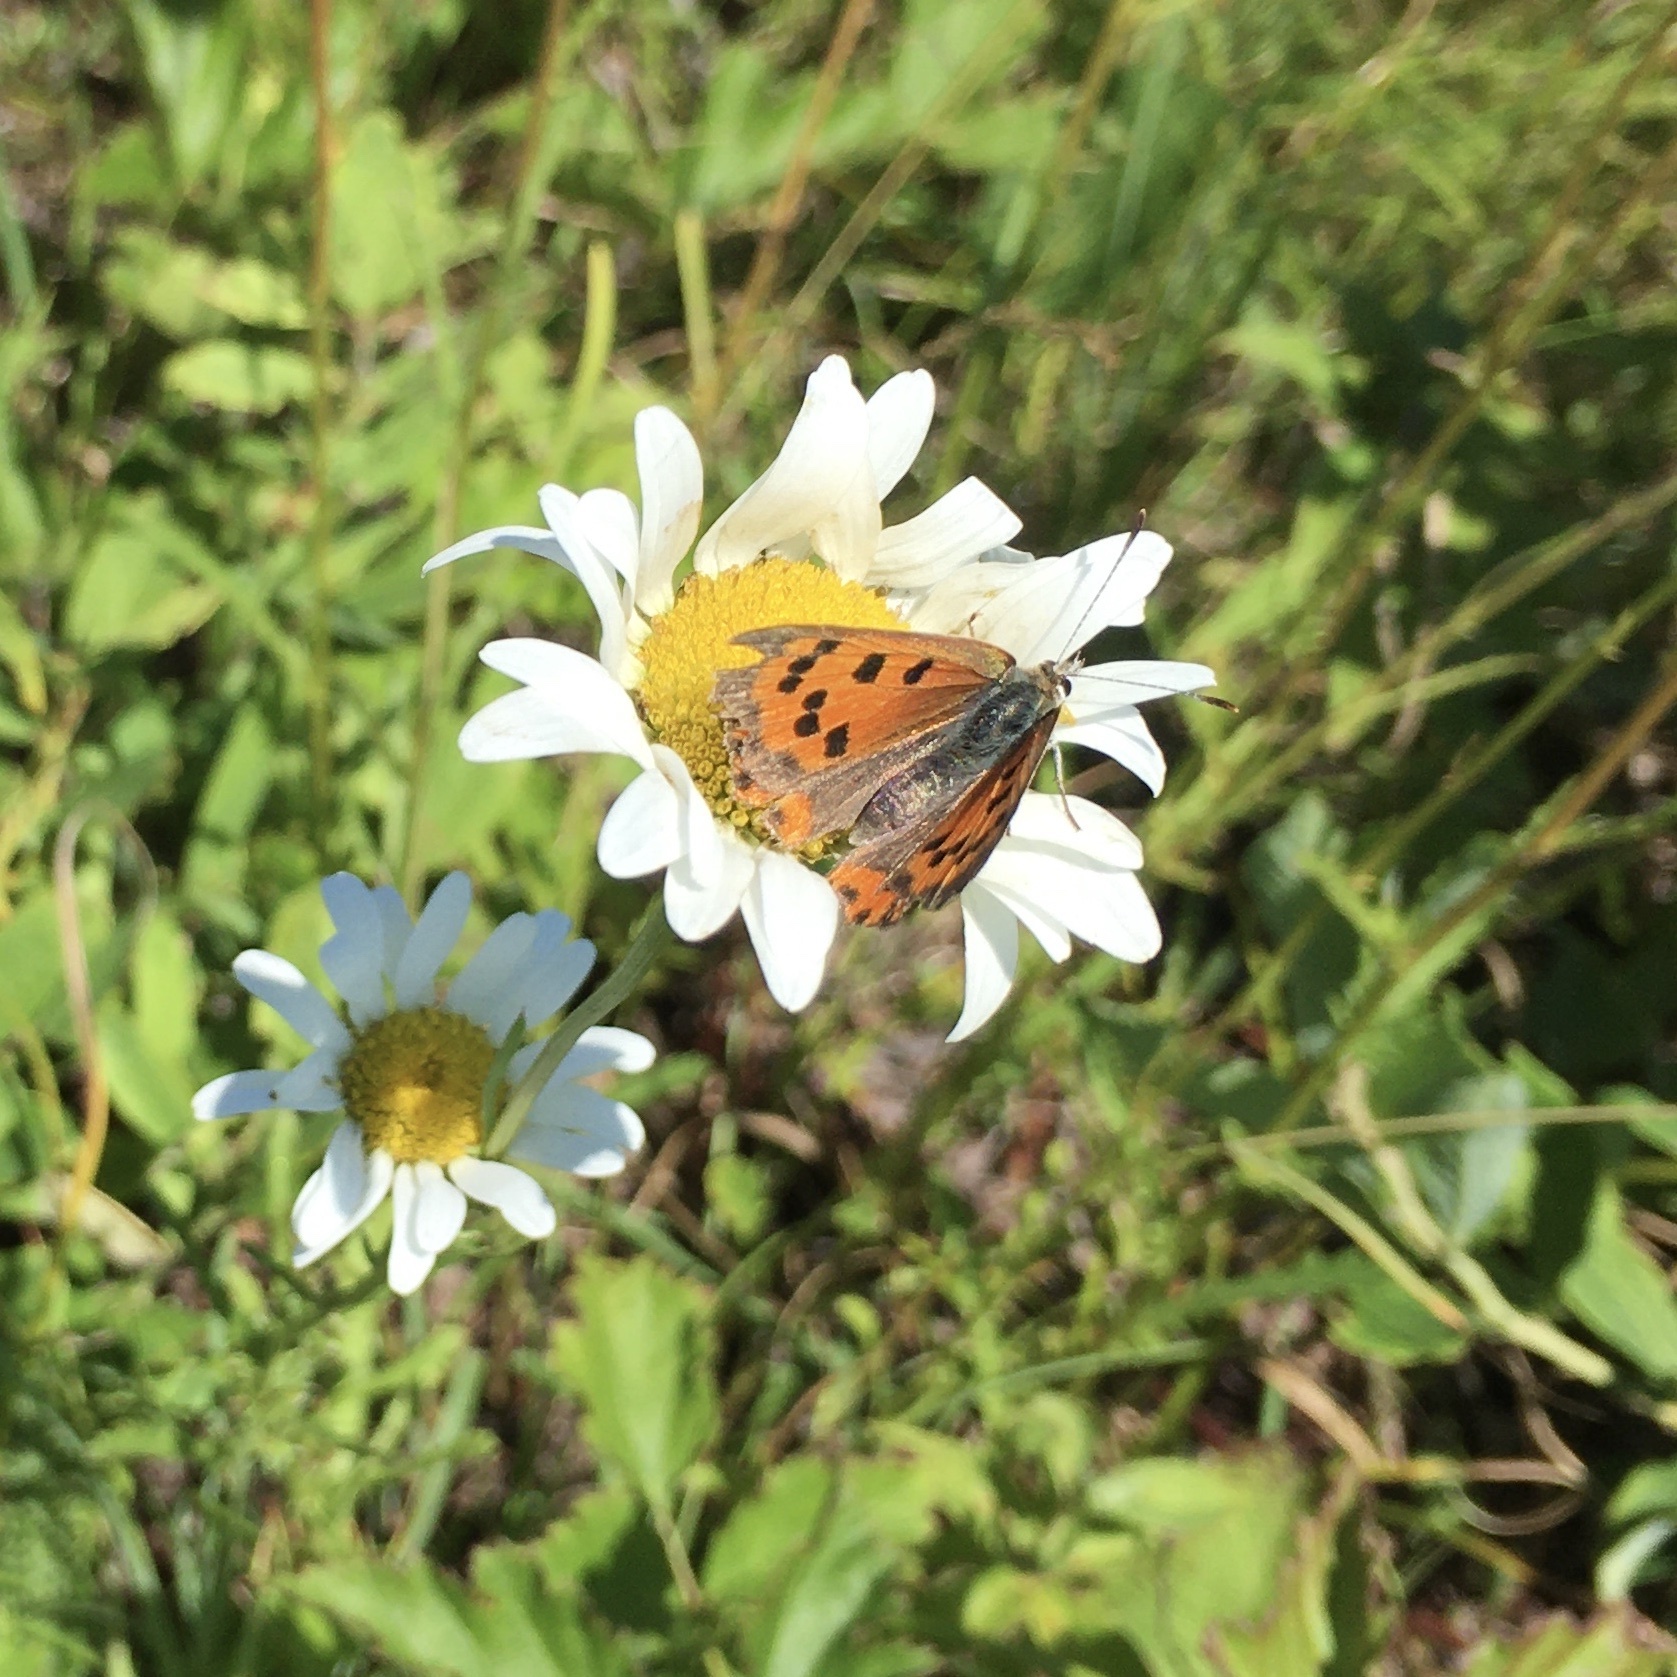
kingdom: Animalia
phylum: Arthropoda
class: Insecta
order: Lepidoptera
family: Lycaenidae
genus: Lycaena
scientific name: Lycaena hypophlaeas
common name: American copper
